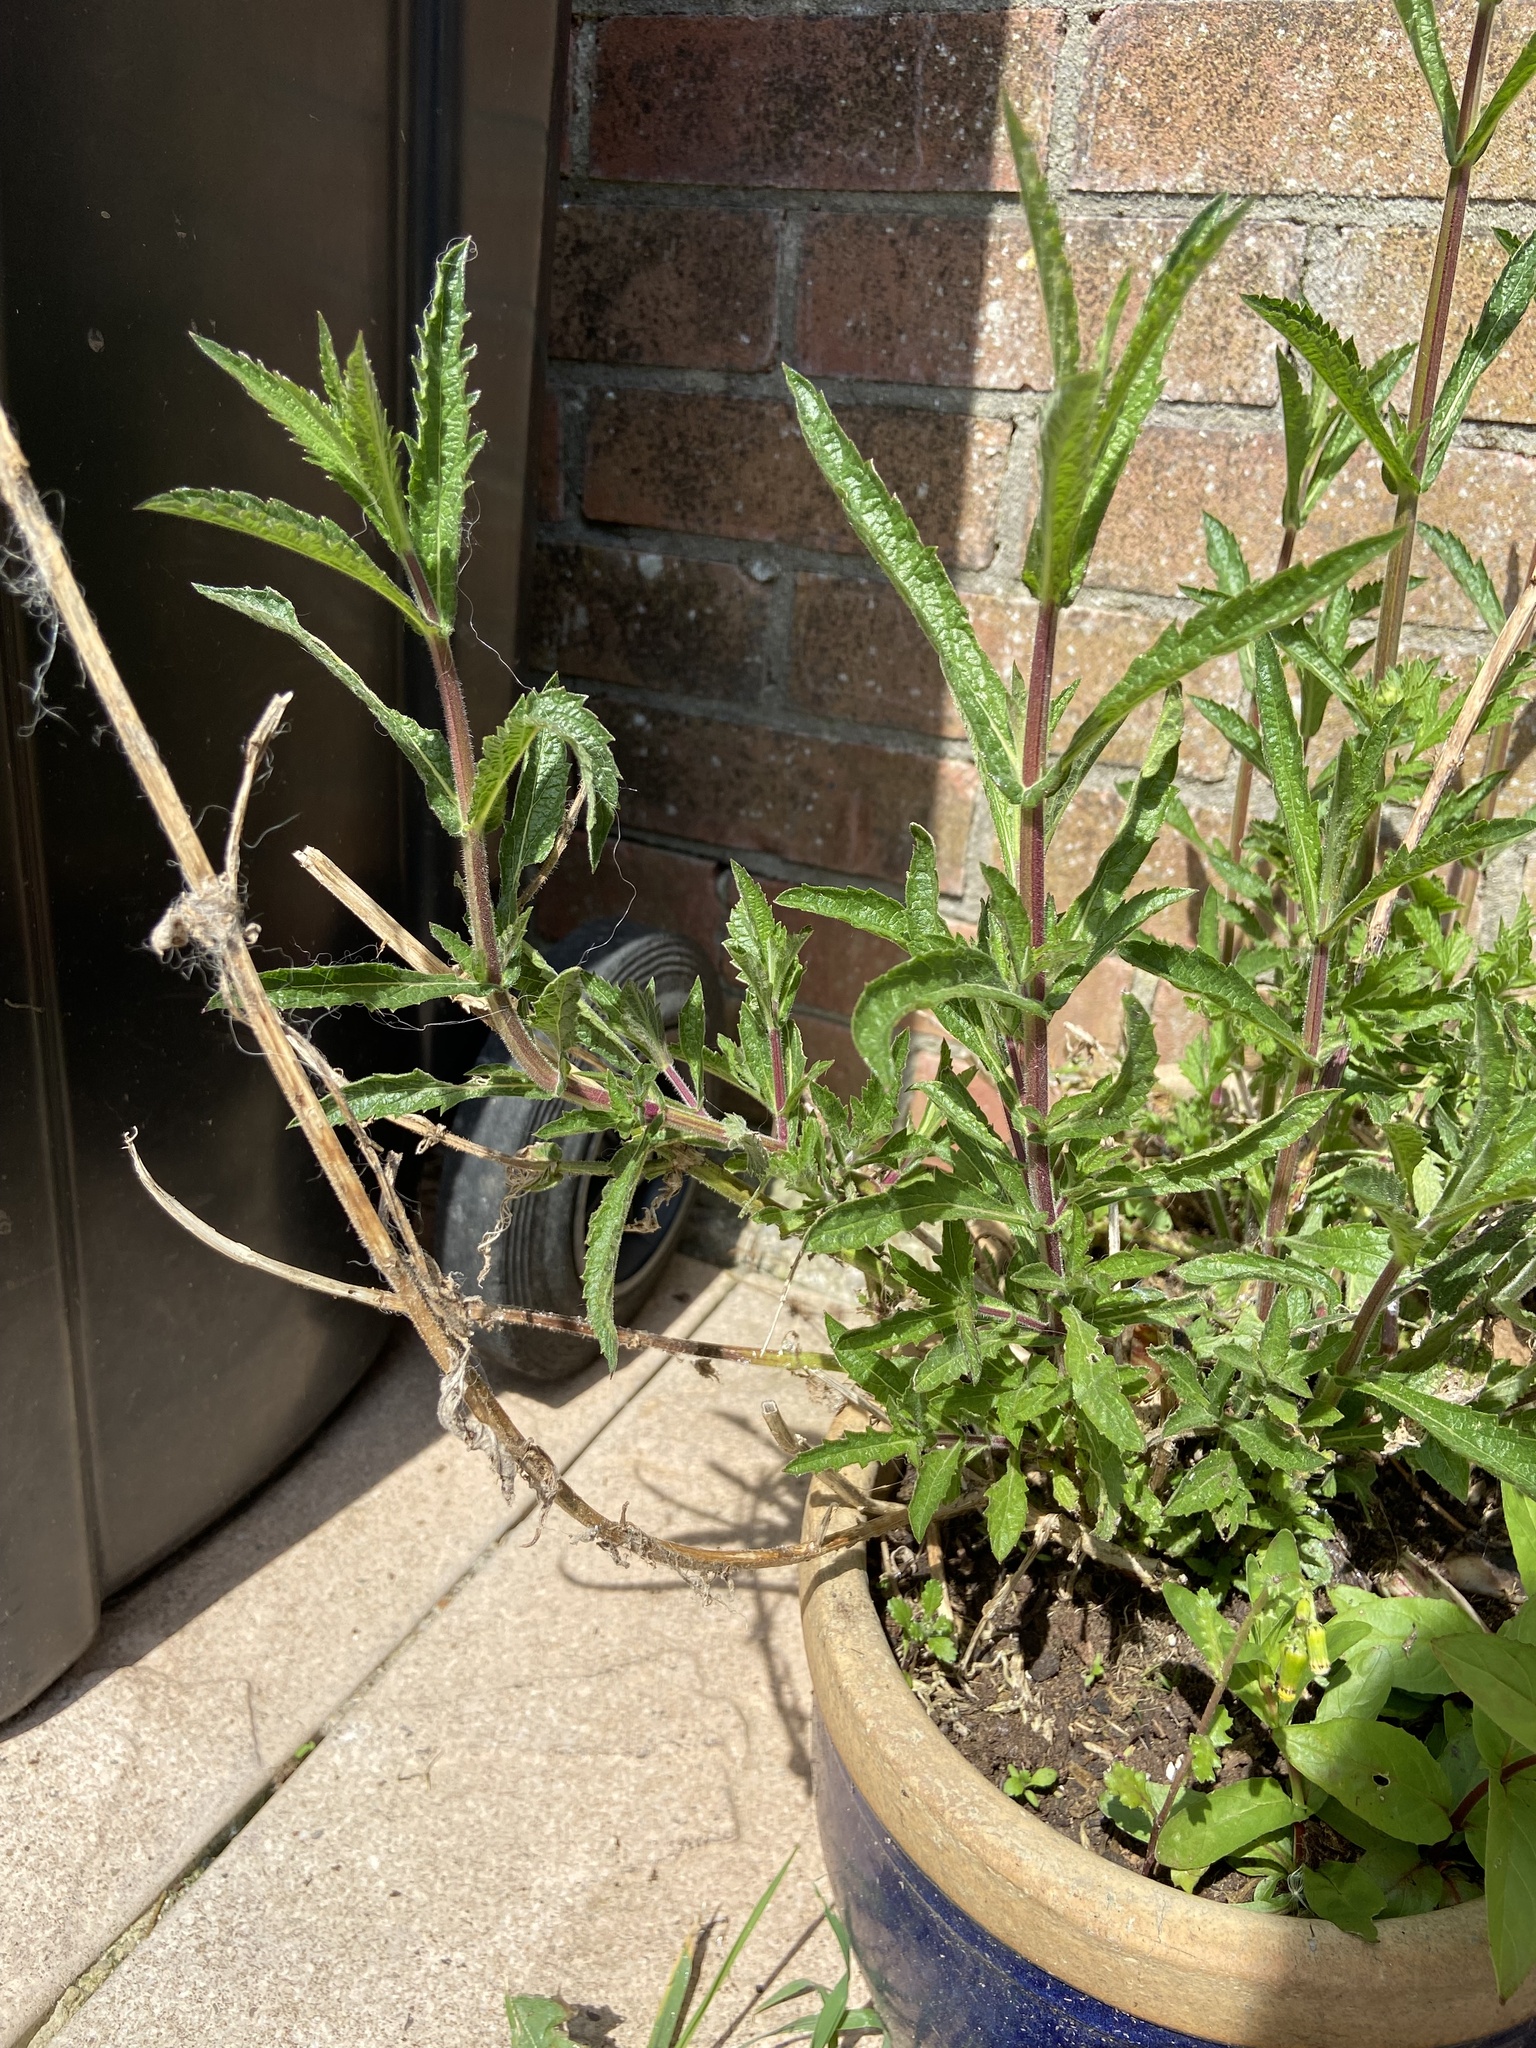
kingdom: Plantae
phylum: Tracheophyta
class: Magnoliopsida
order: Lamiales
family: Verbenaceae
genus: Verbena
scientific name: Verbena bonariensis
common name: Purpletop vervain
